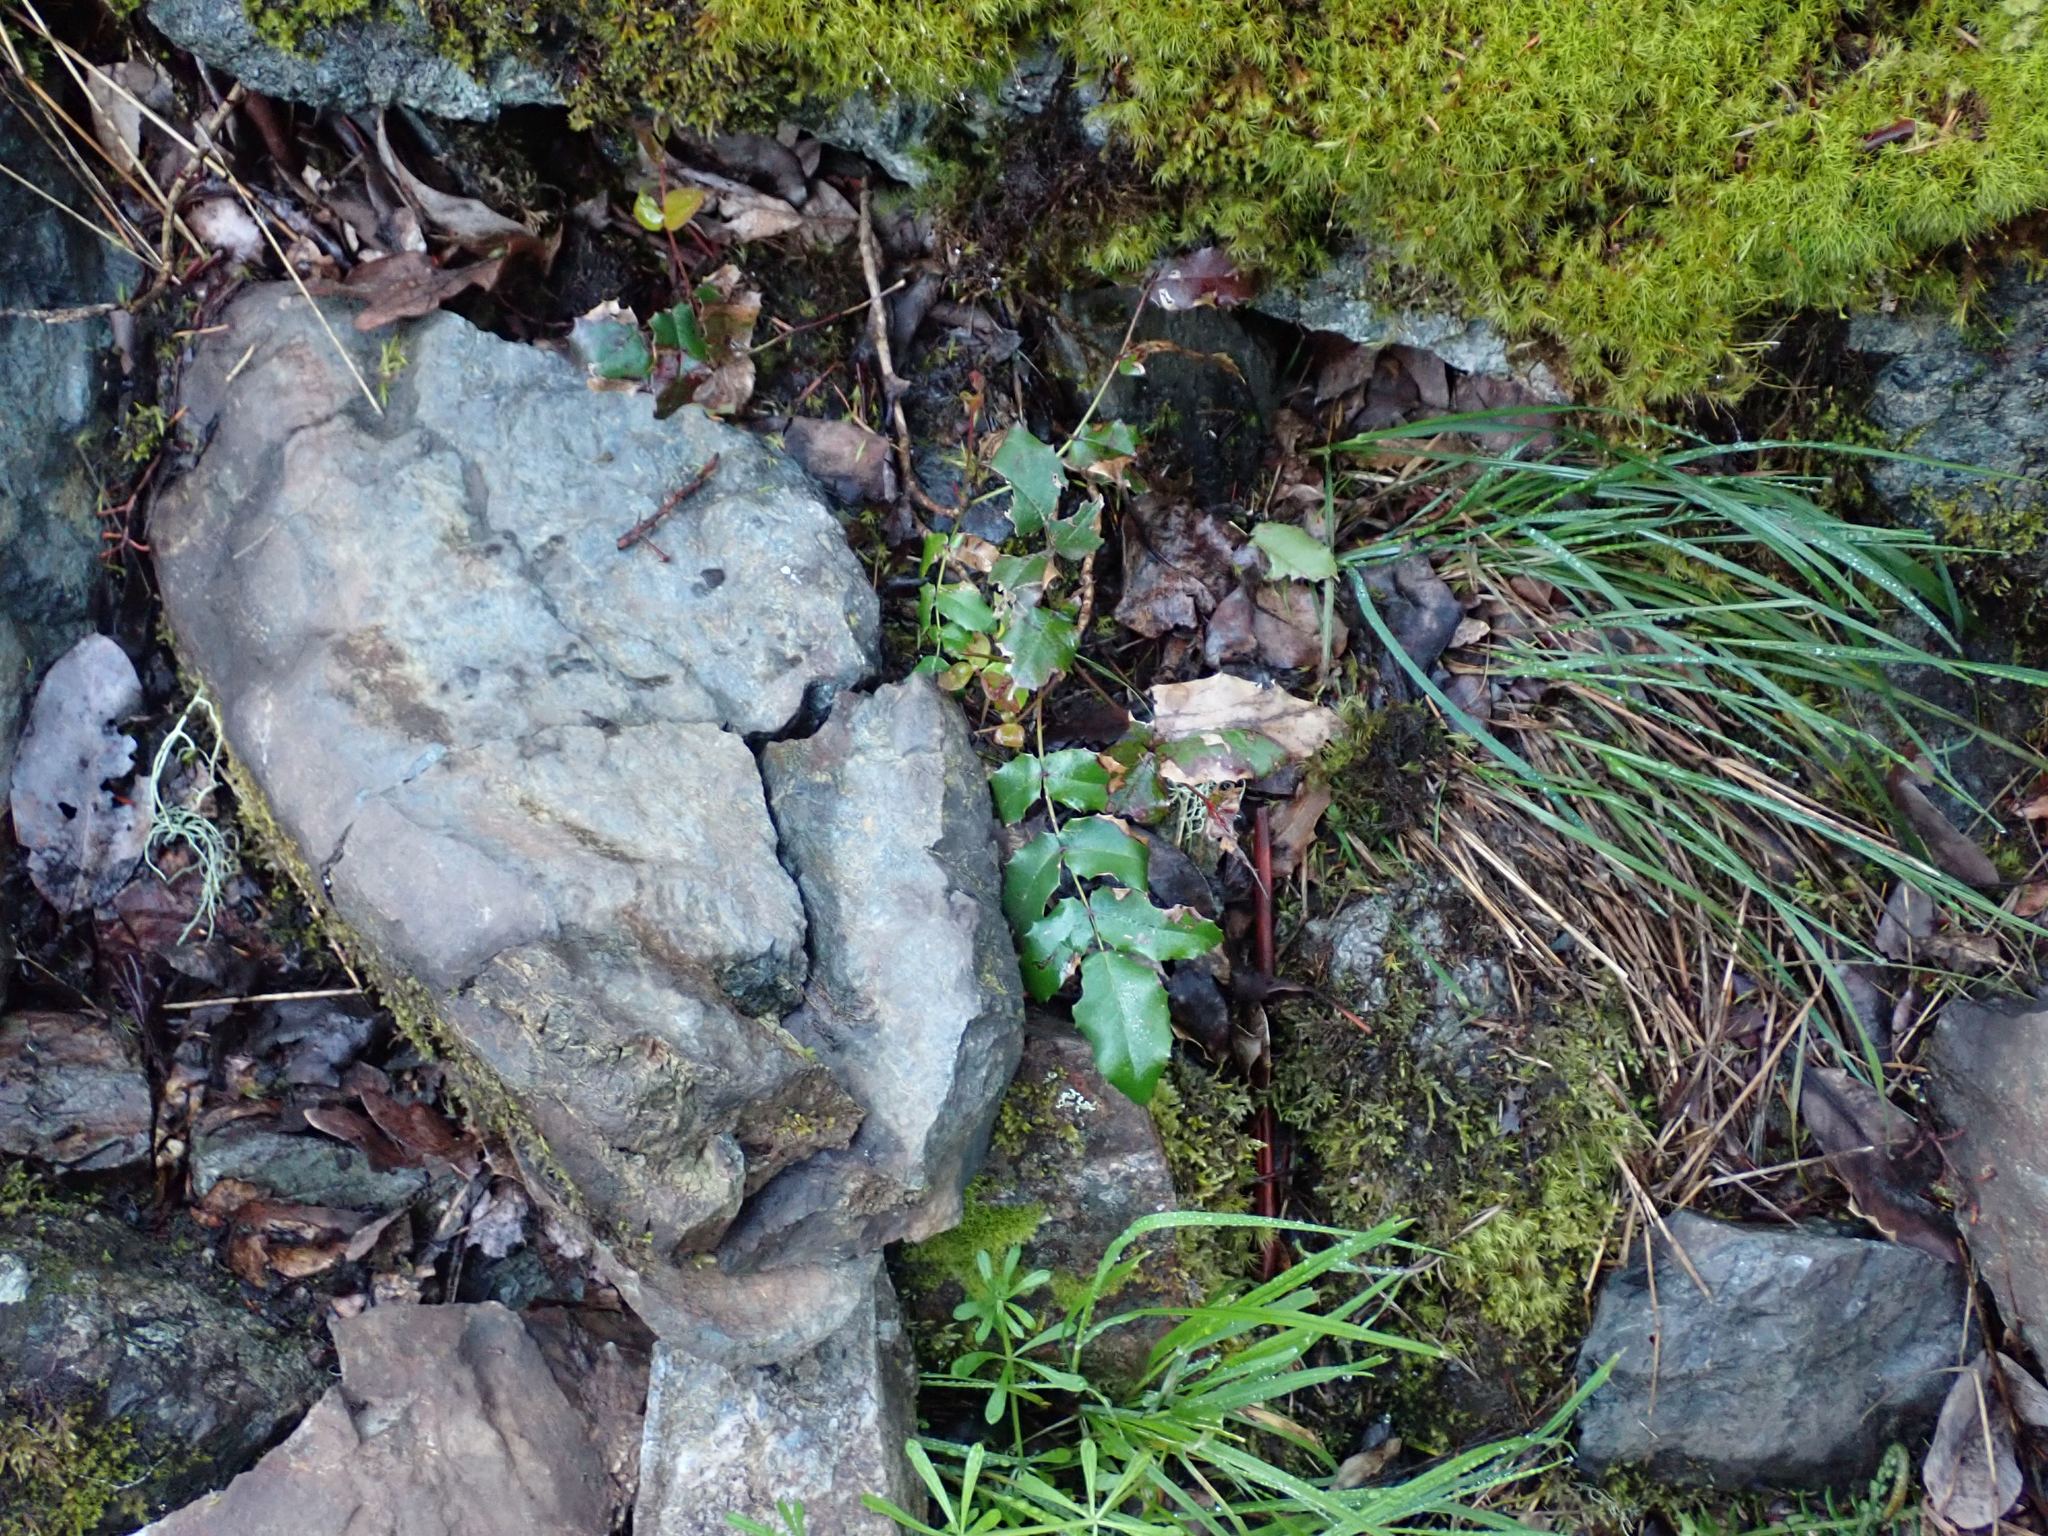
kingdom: Plantae
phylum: Tracheophyta
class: Magnoliopsida
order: Ranunculales
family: Berberidaceae
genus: Mahonia
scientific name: Mahonia aquifolium
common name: Oregon-grape
